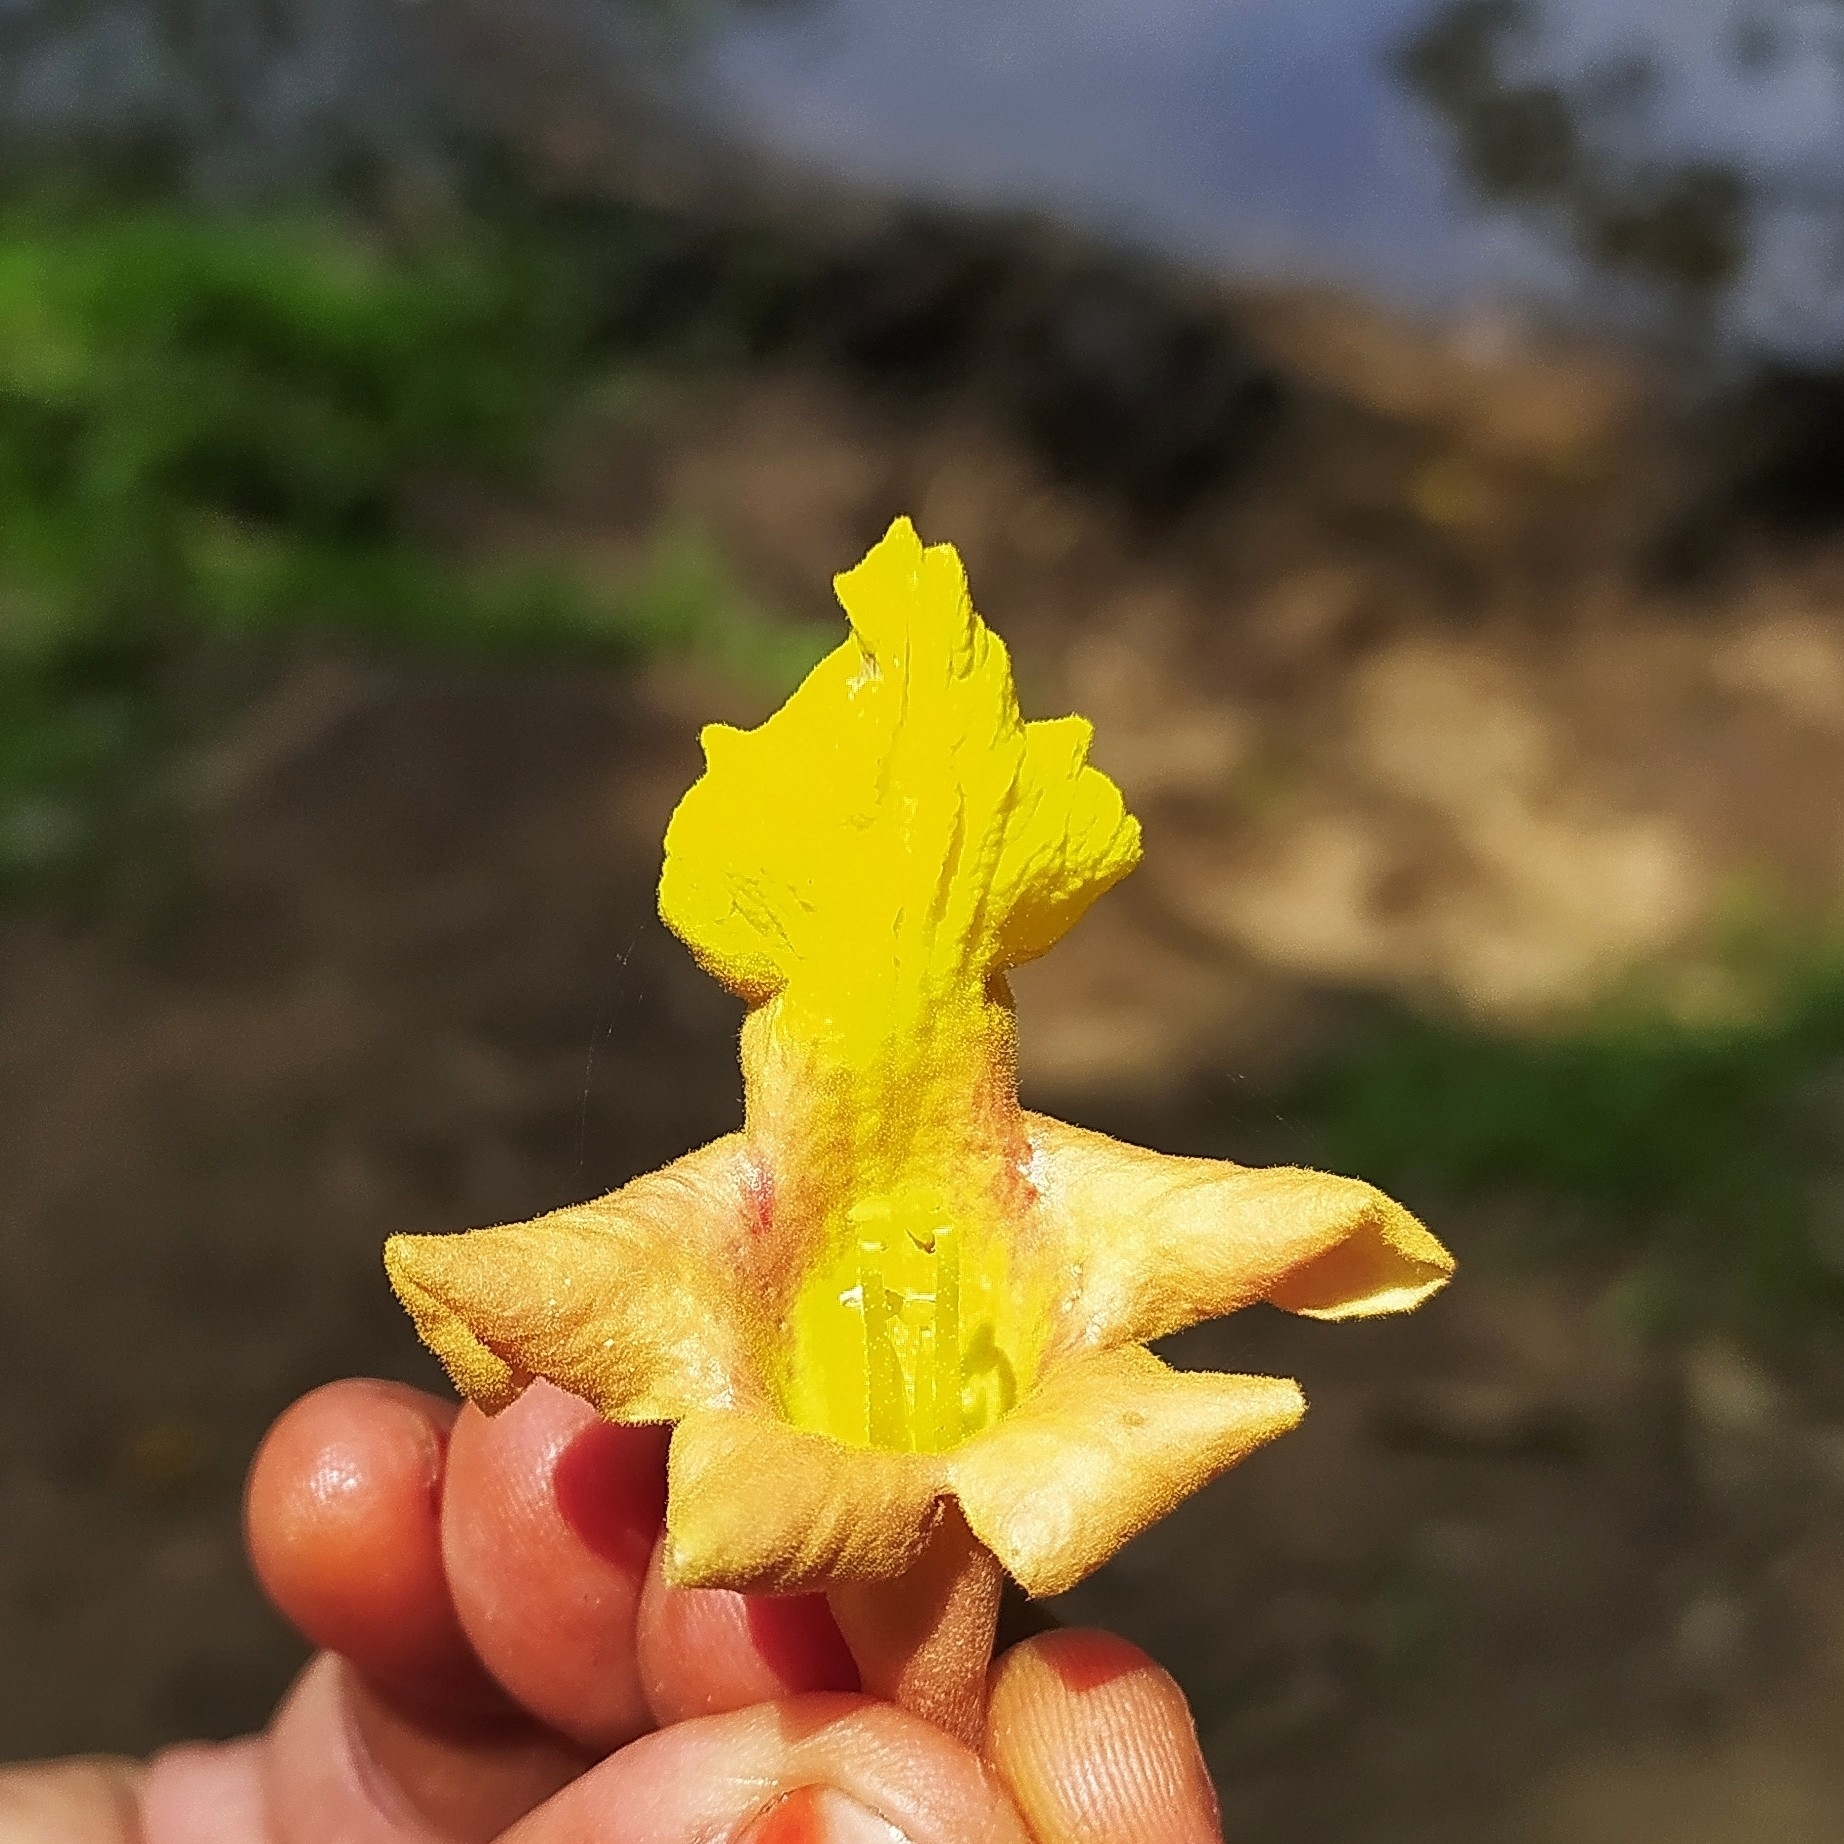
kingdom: Plantae
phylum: Tracheophyta
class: Magnoliopsida
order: Lamiales
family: Lamiaceae
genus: Gmelina
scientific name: Gmelina arborea
